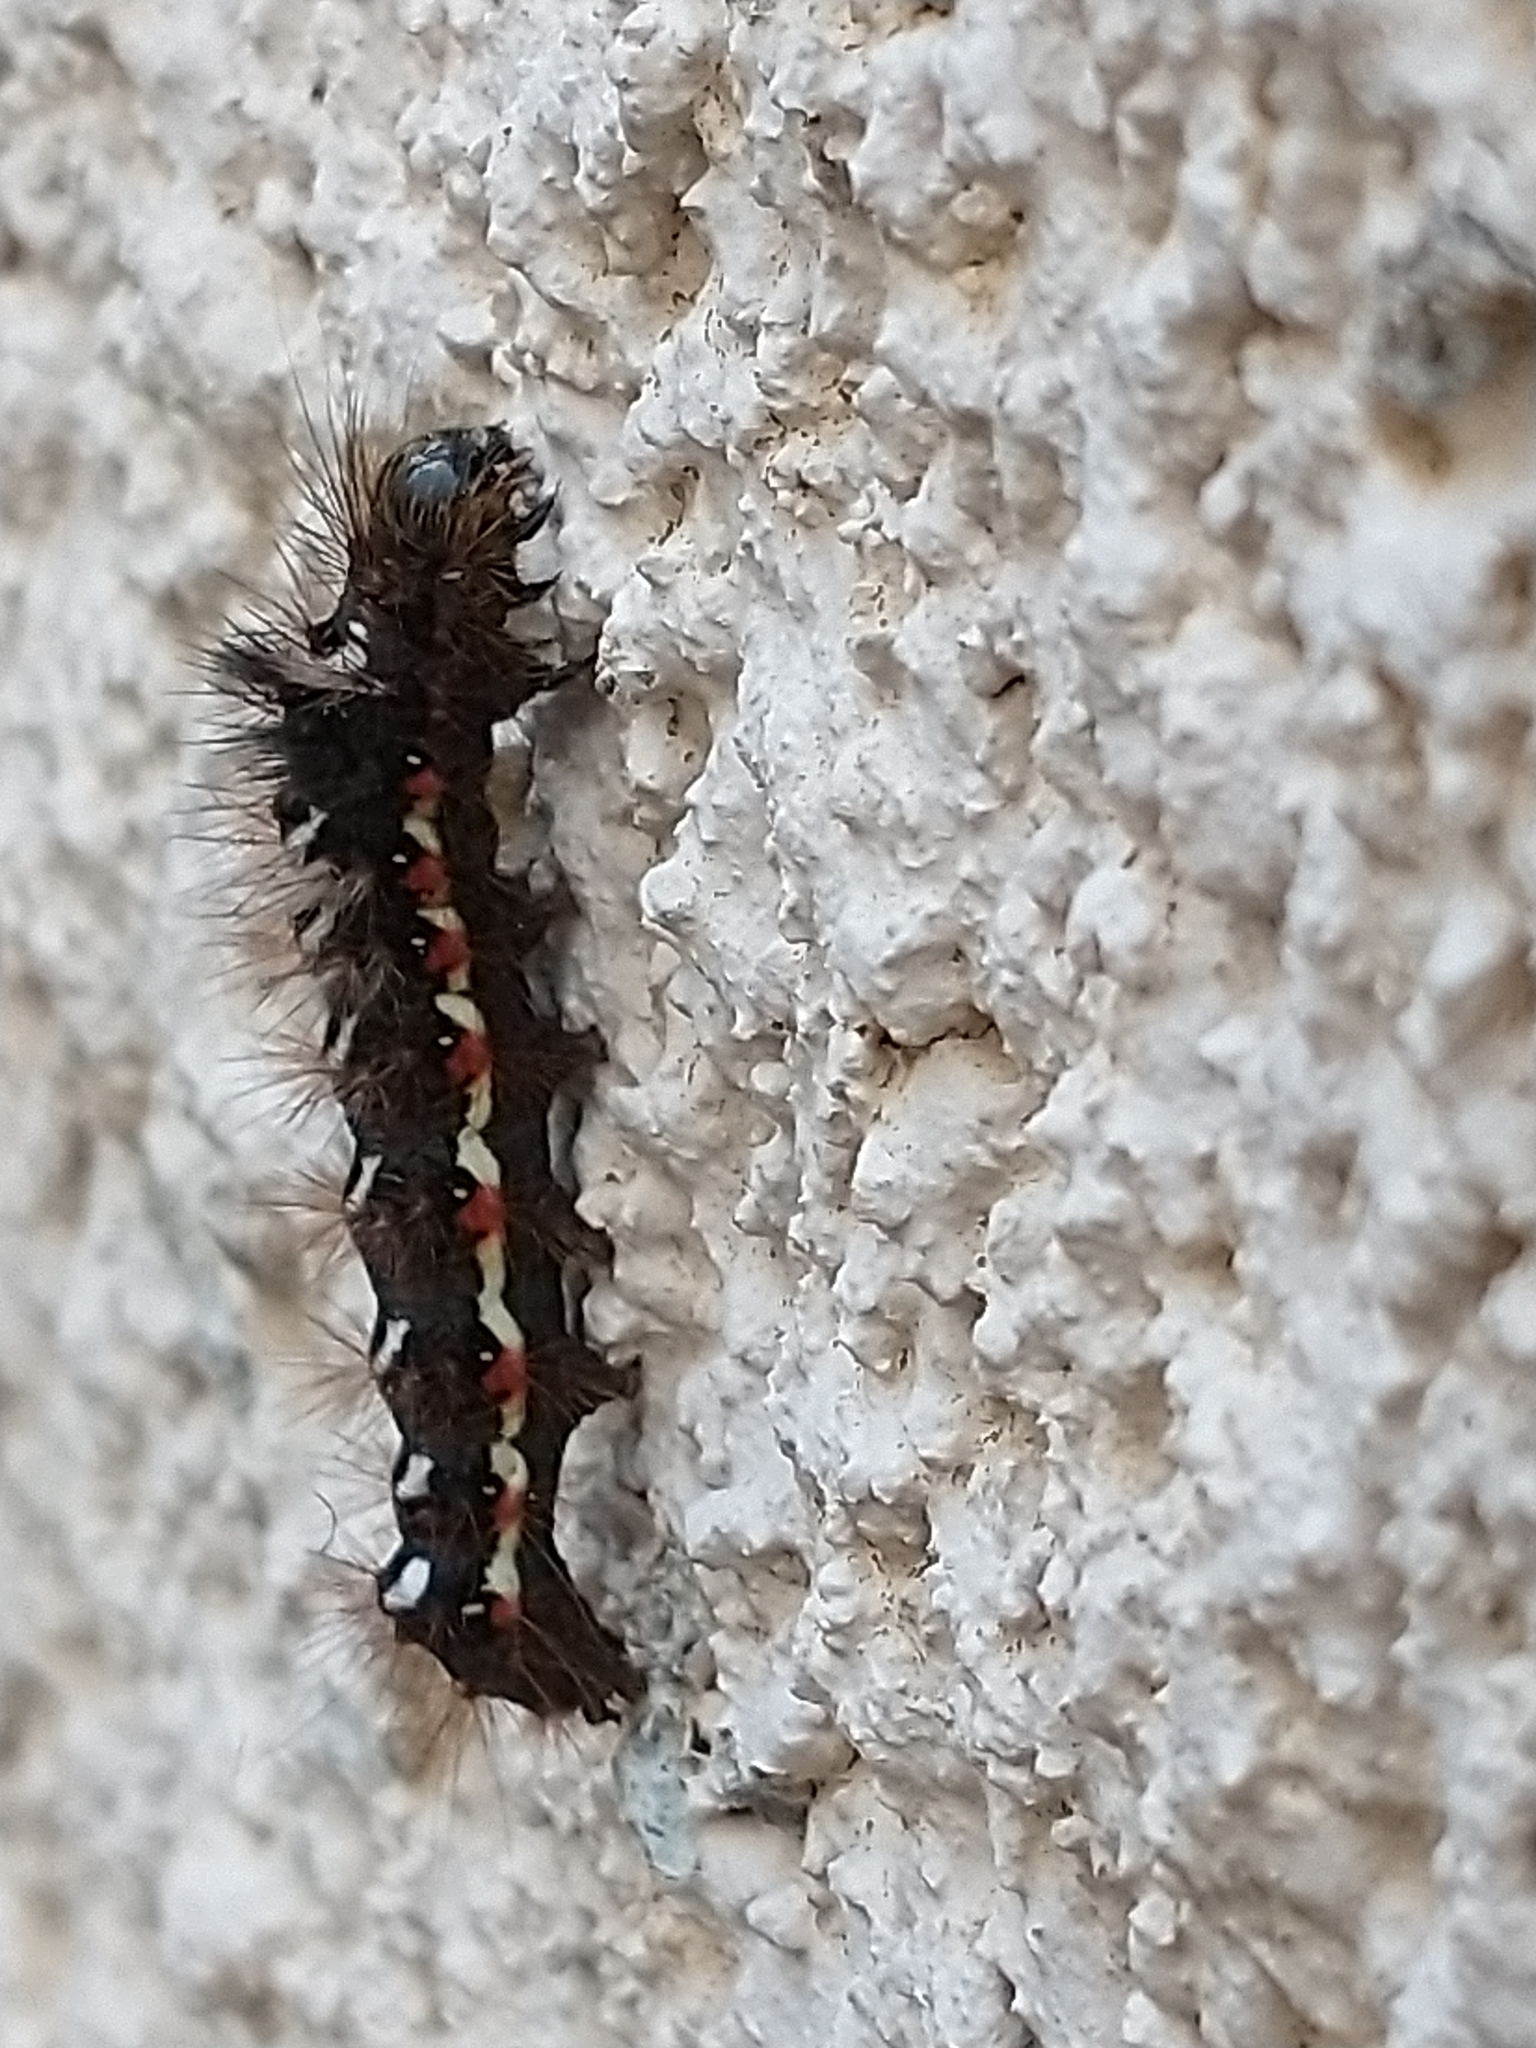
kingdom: Animalia
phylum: Arthropoda
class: Insecta
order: Lepidoptera
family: Noctuidae
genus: Acronicta
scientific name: Acronicta rumicis
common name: Knot grass
